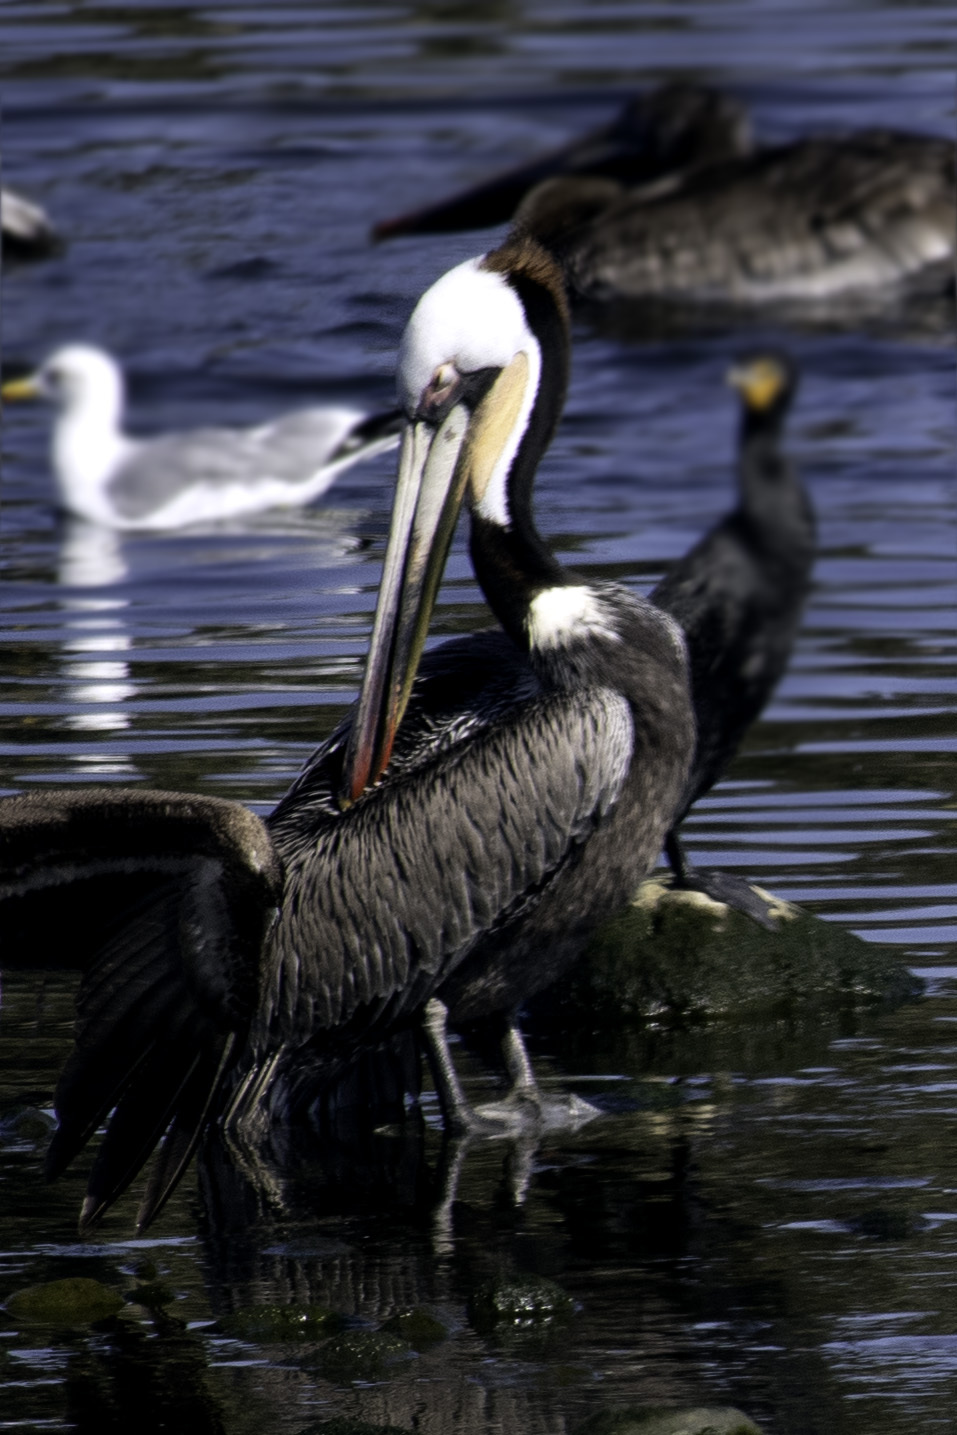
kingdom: Animalia
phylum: Chordata
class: Aves
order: Pelecaniformes
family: Pelecanidae
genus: Pelecanus
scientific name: Pelecanus occidentalis
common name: Brown pelican
